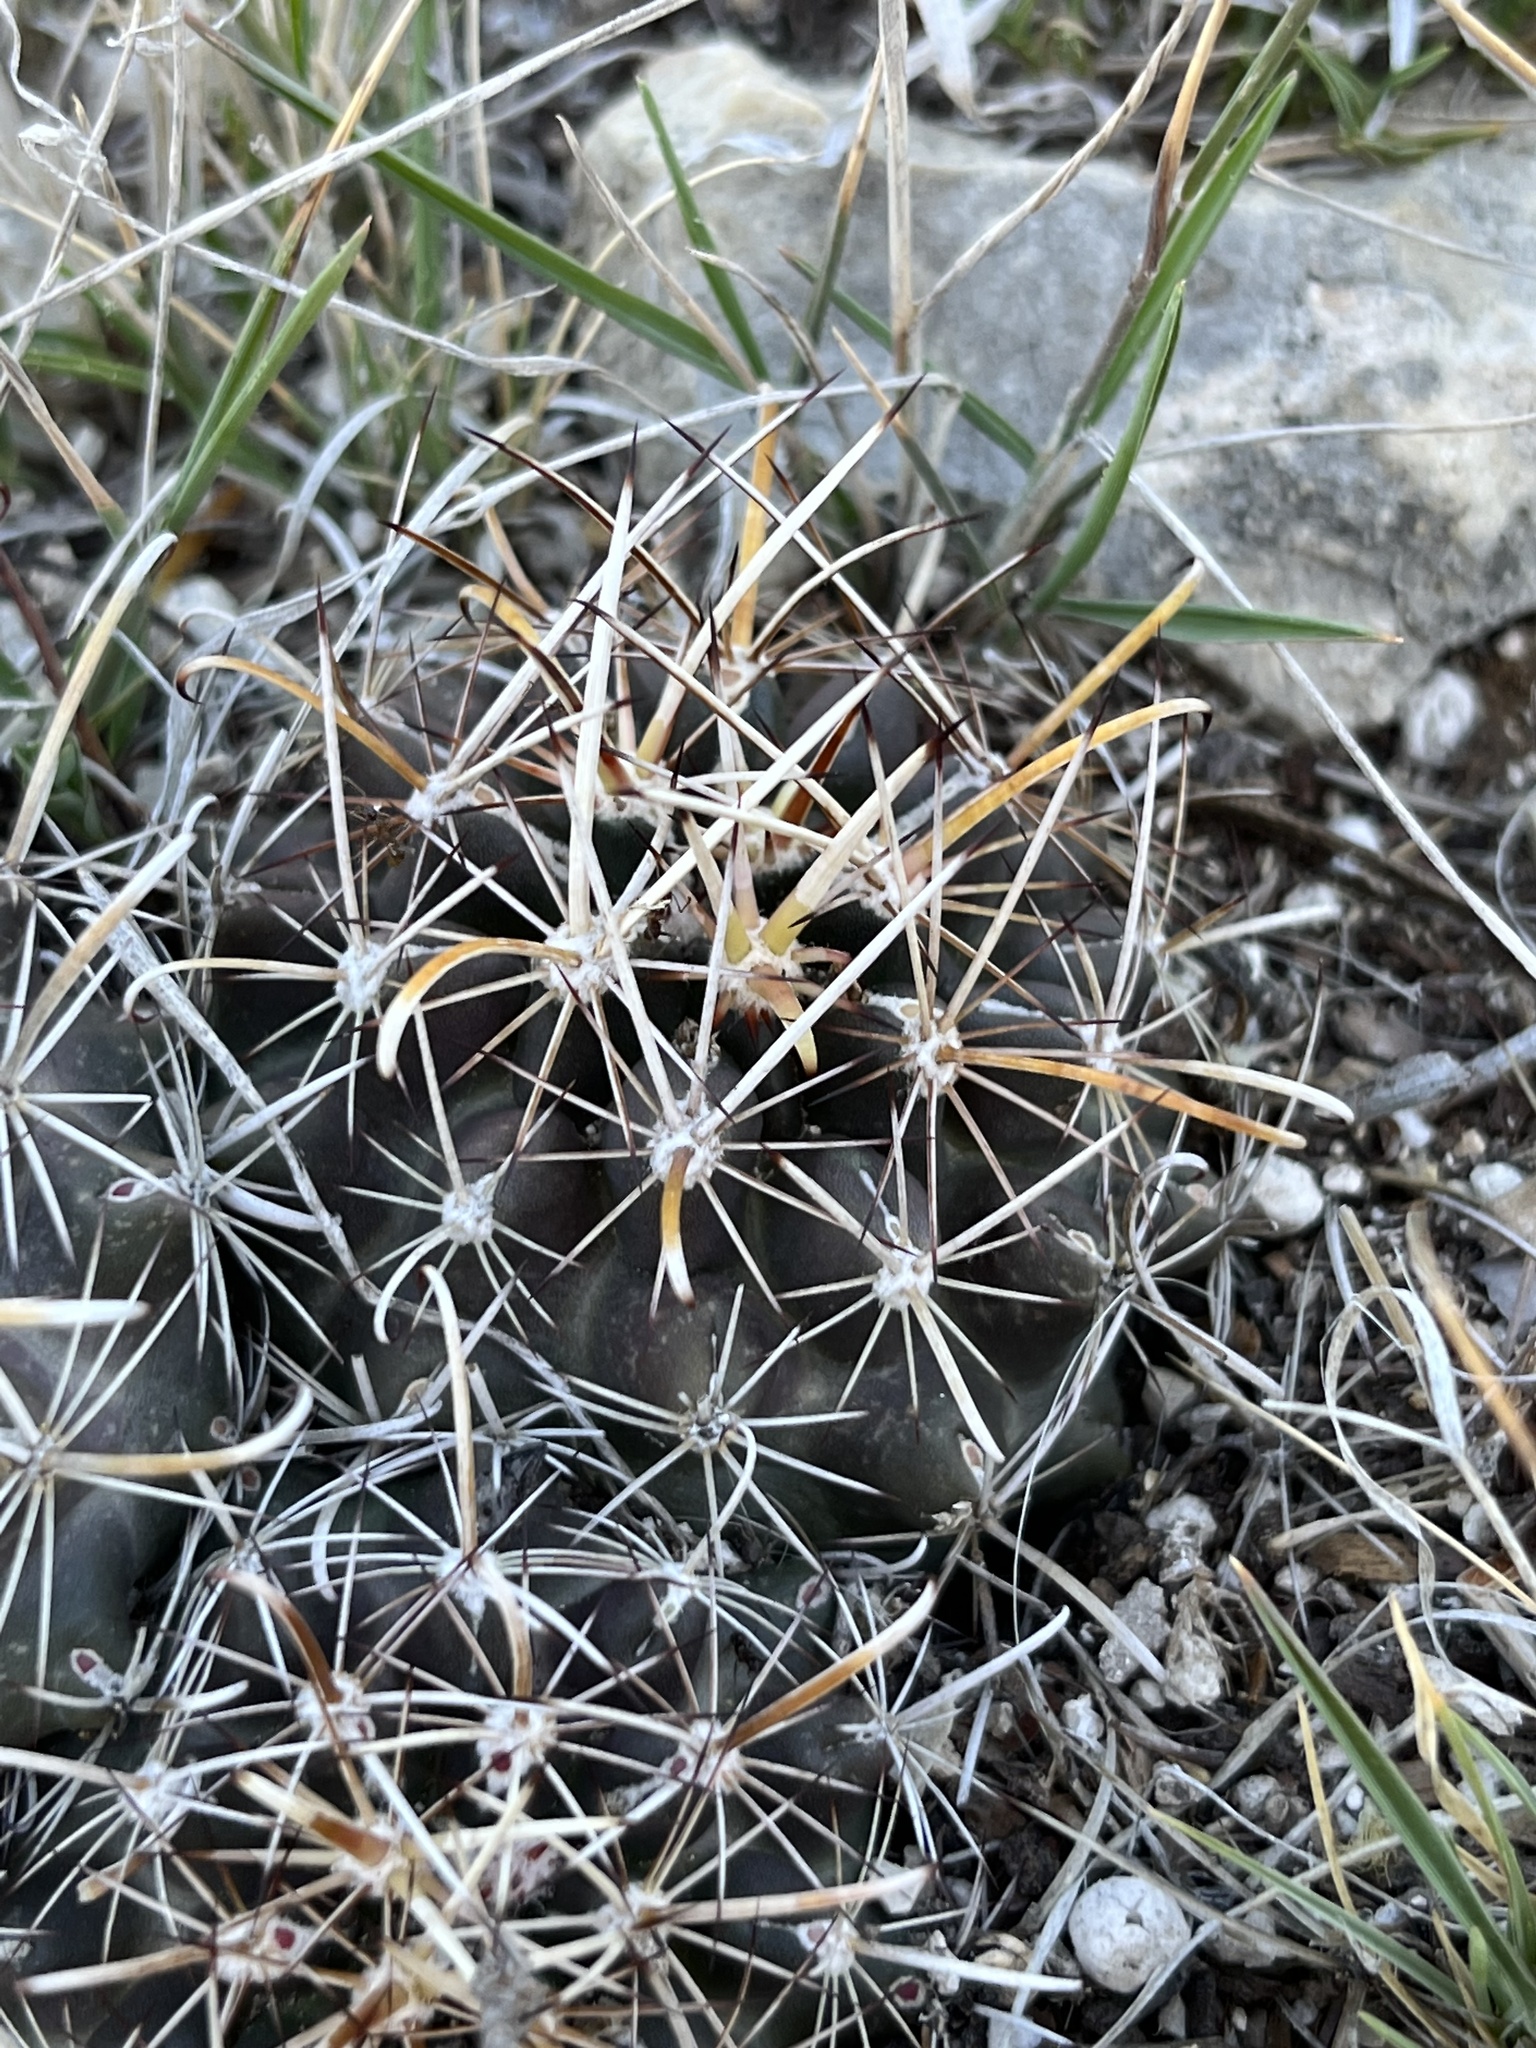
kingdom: Plantae
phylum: Tracheophyta
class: Magnoliopsida
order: Caryophyllales
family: Cactaceae
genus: Sclerocactus
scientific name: Sclerocactus brevihamatus
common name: Engelmann's fishhook cactus
